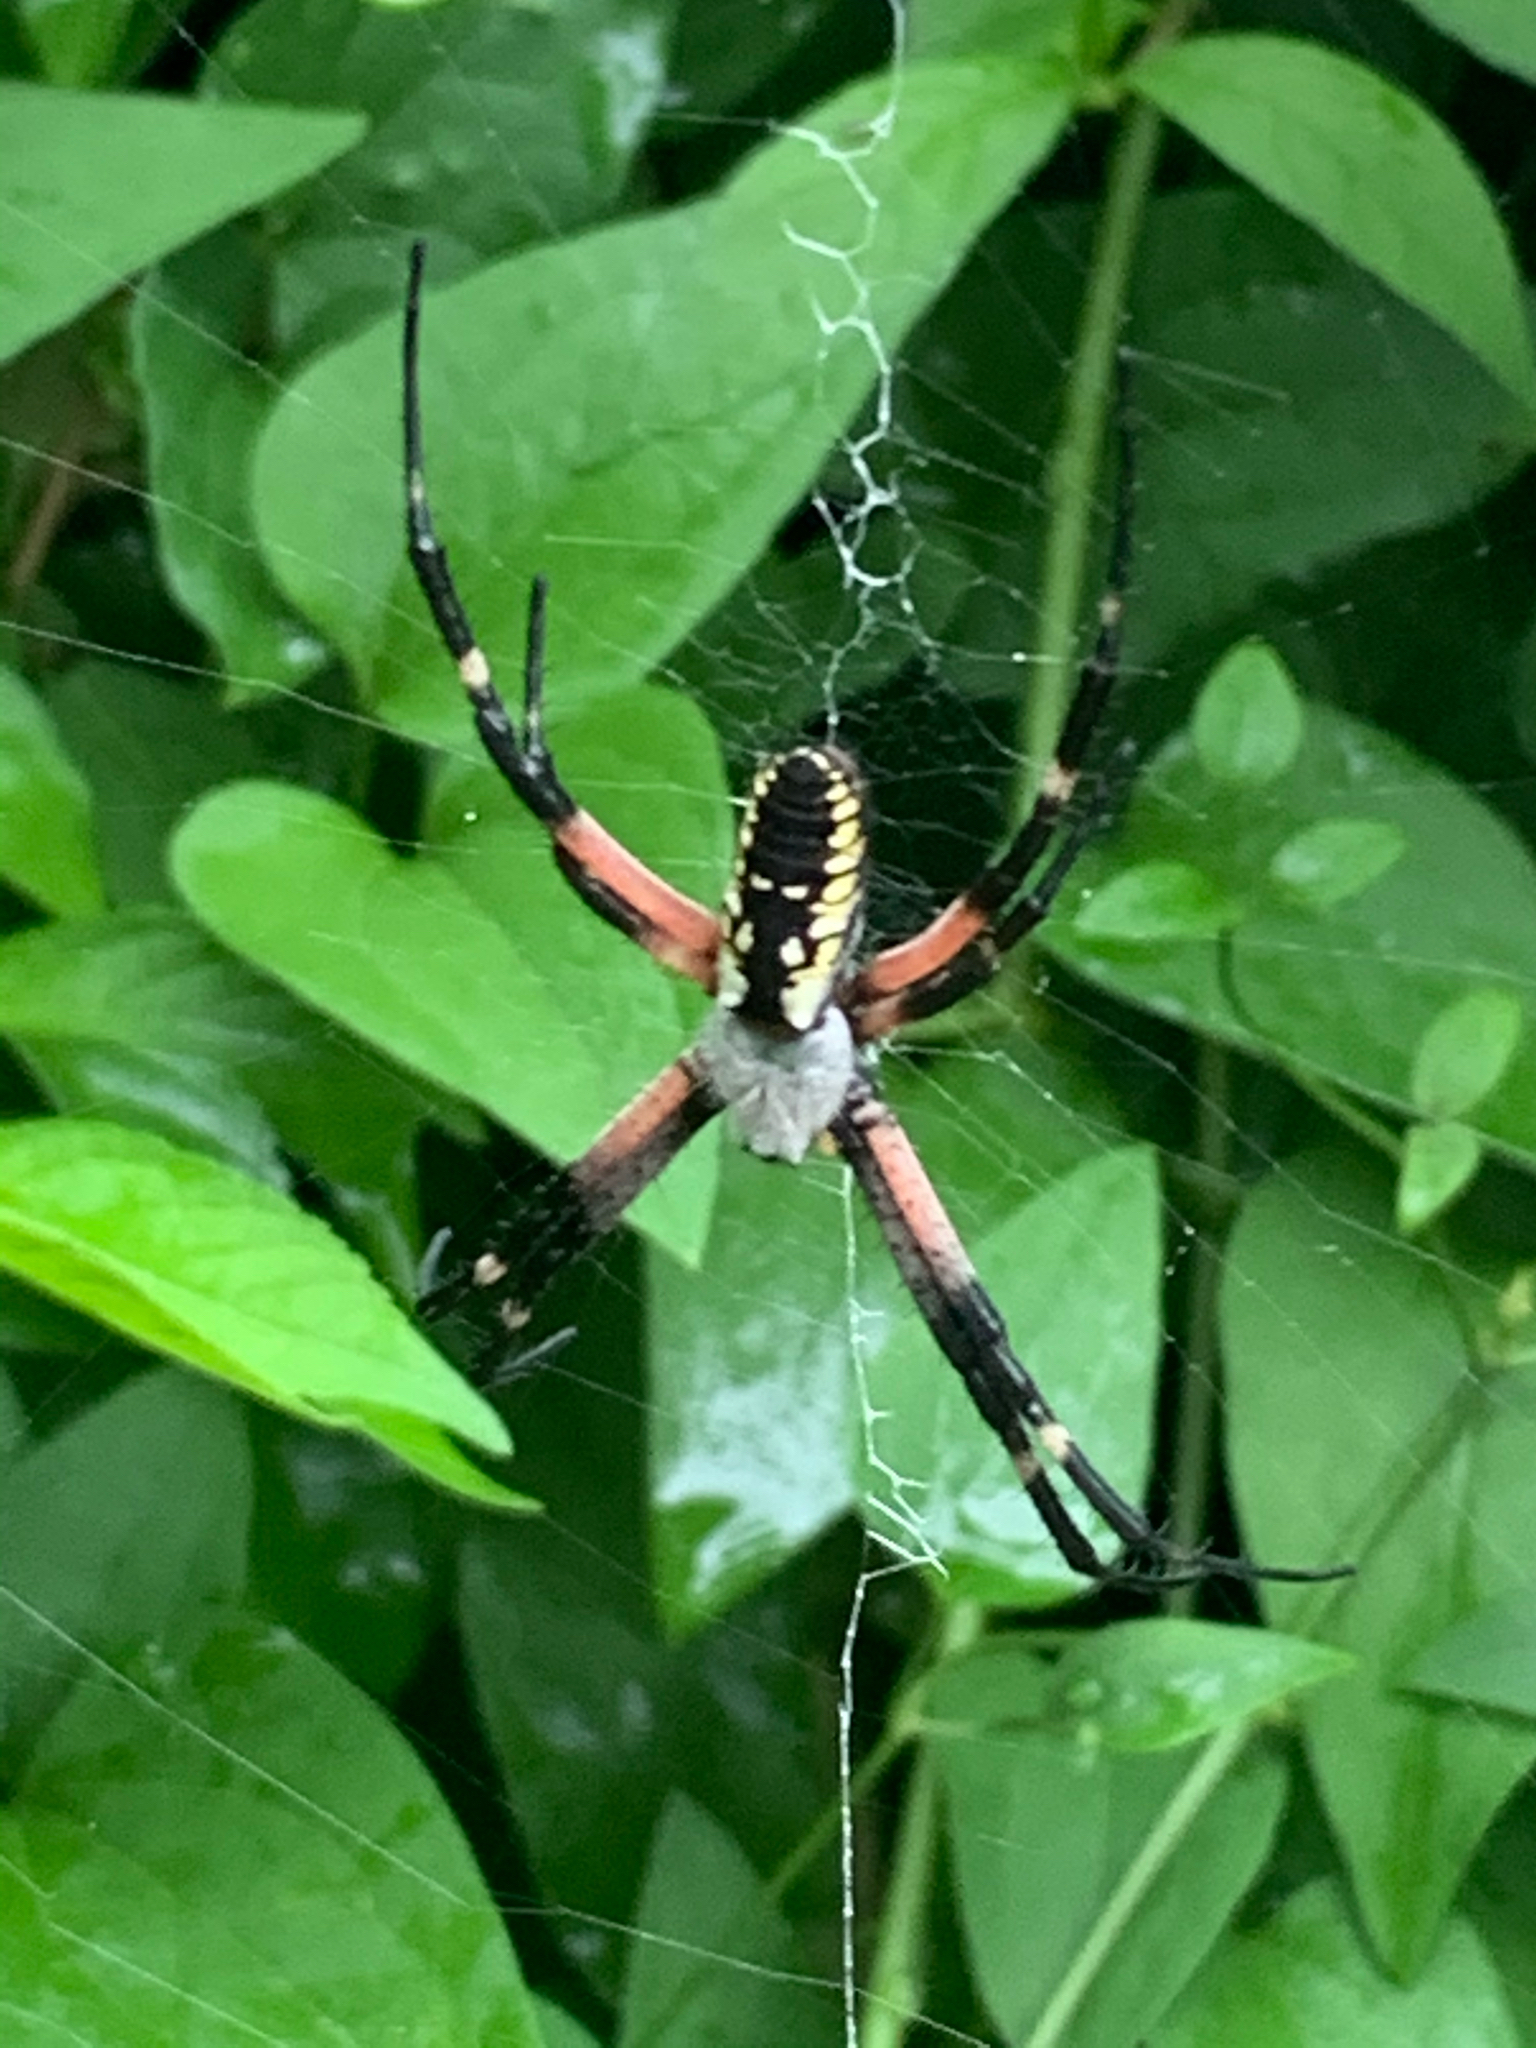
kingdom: Animalia
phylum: Arthropoda
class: Arachnida
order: Araneae
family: Araneidae
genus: Argiope
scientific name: Argiope aurantia
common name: Orb weavers
